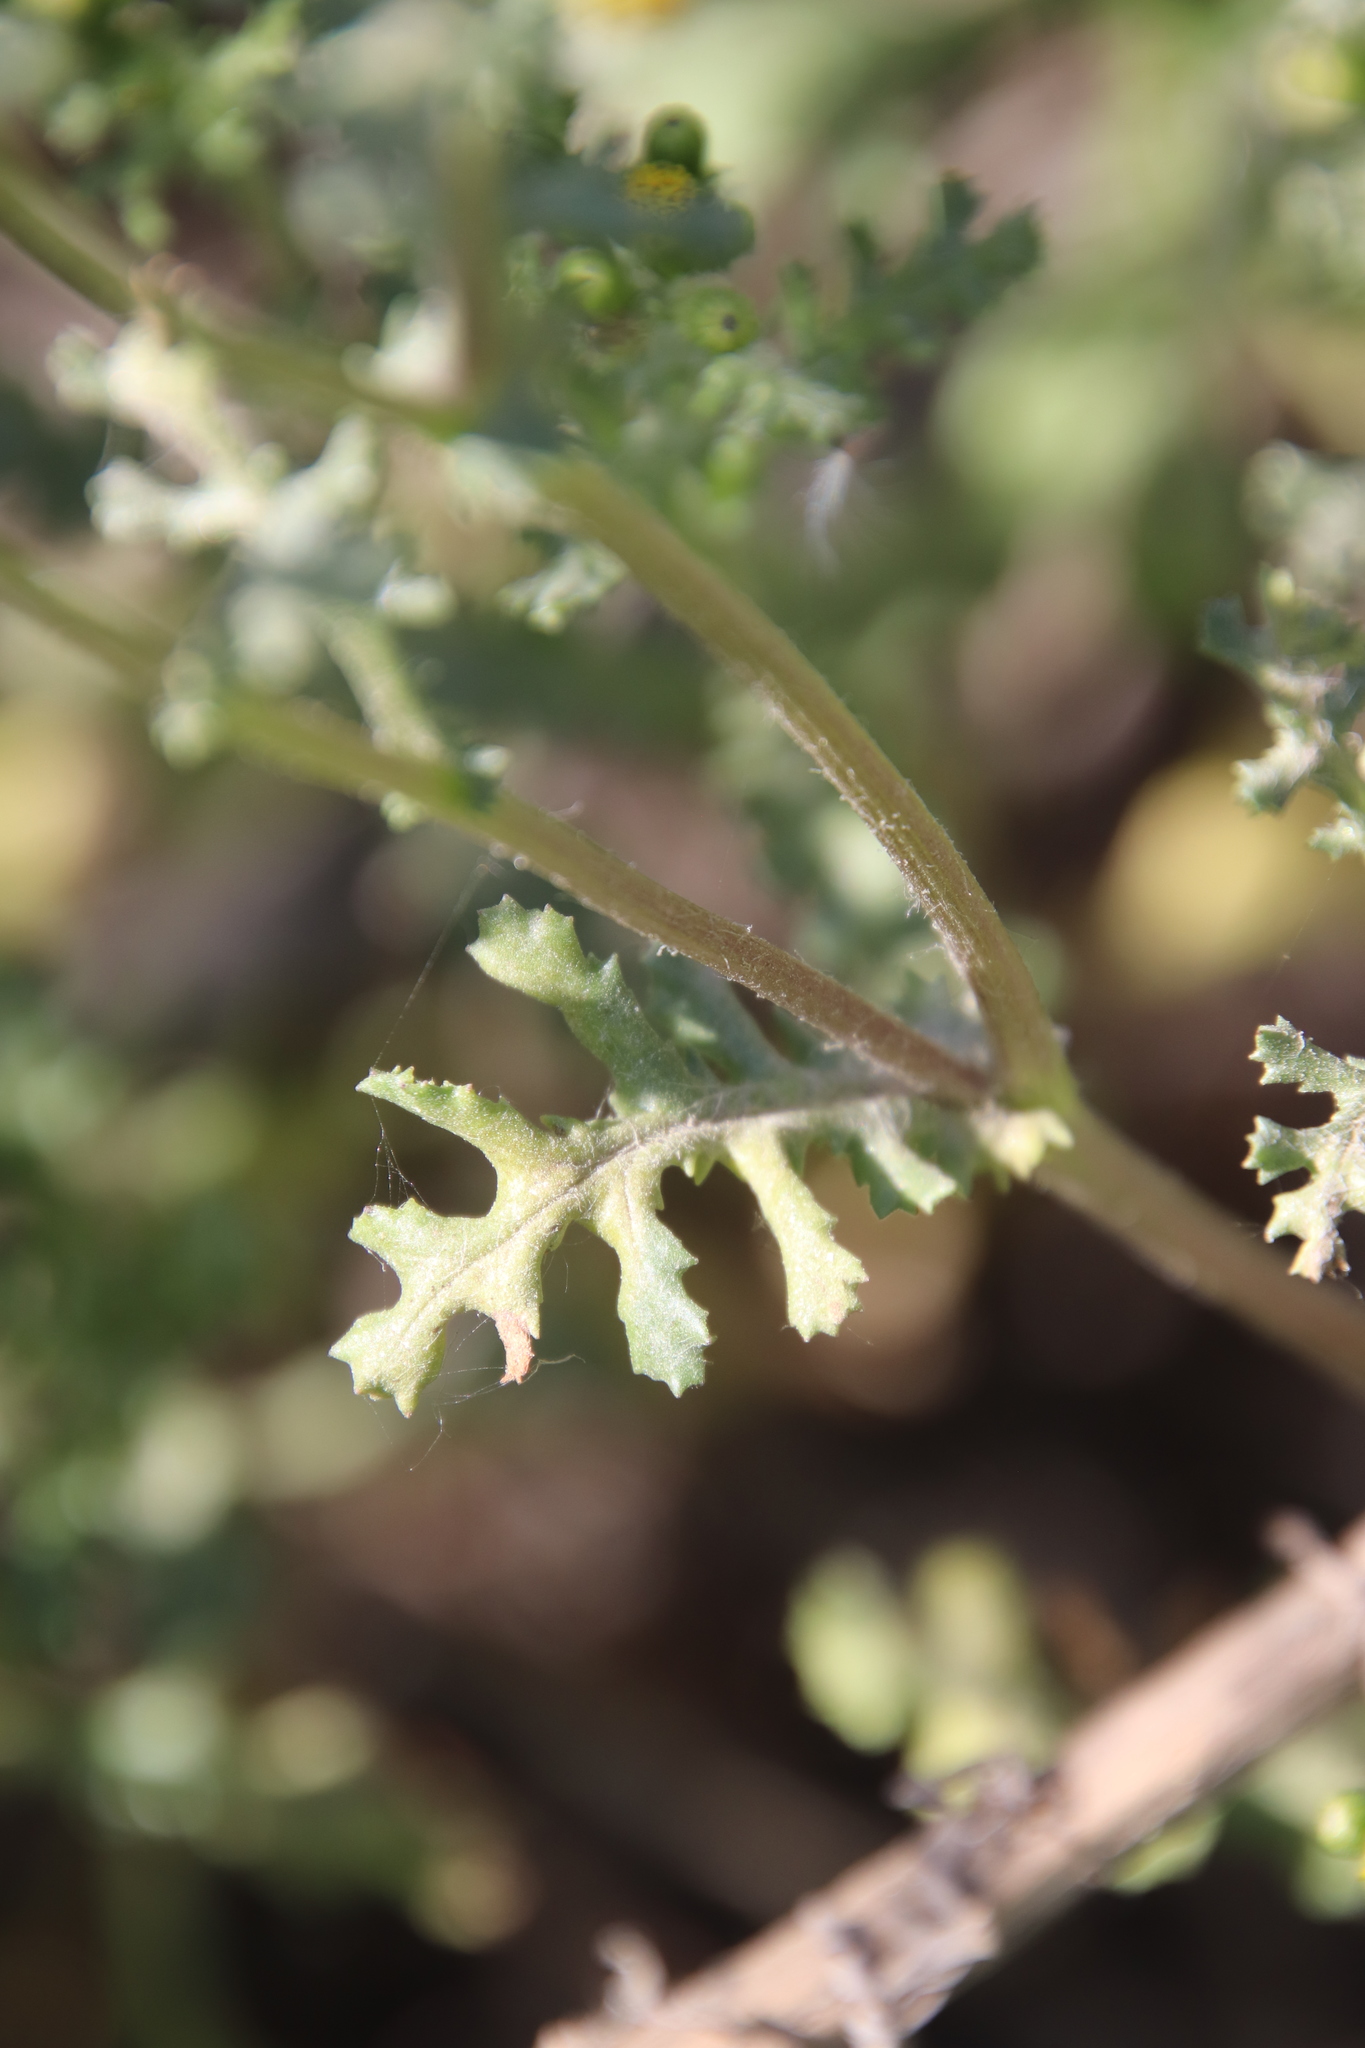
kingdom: Plantae
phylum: Tracheophyta
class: Magnoliopsida
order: Asterales
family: Asteraceae
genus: Senecio
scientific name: Senecio vulgaris
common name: Old-man-in-the-spring
